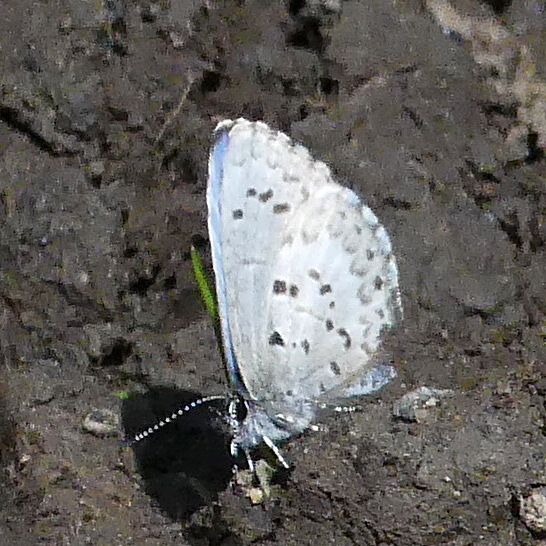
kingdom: Animalia
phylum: Arthropoda
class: Insecta
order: Lepidoptera
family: Lycaenidae
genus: Celastrina
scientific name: Celastrina lucia
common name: Lucia azure
